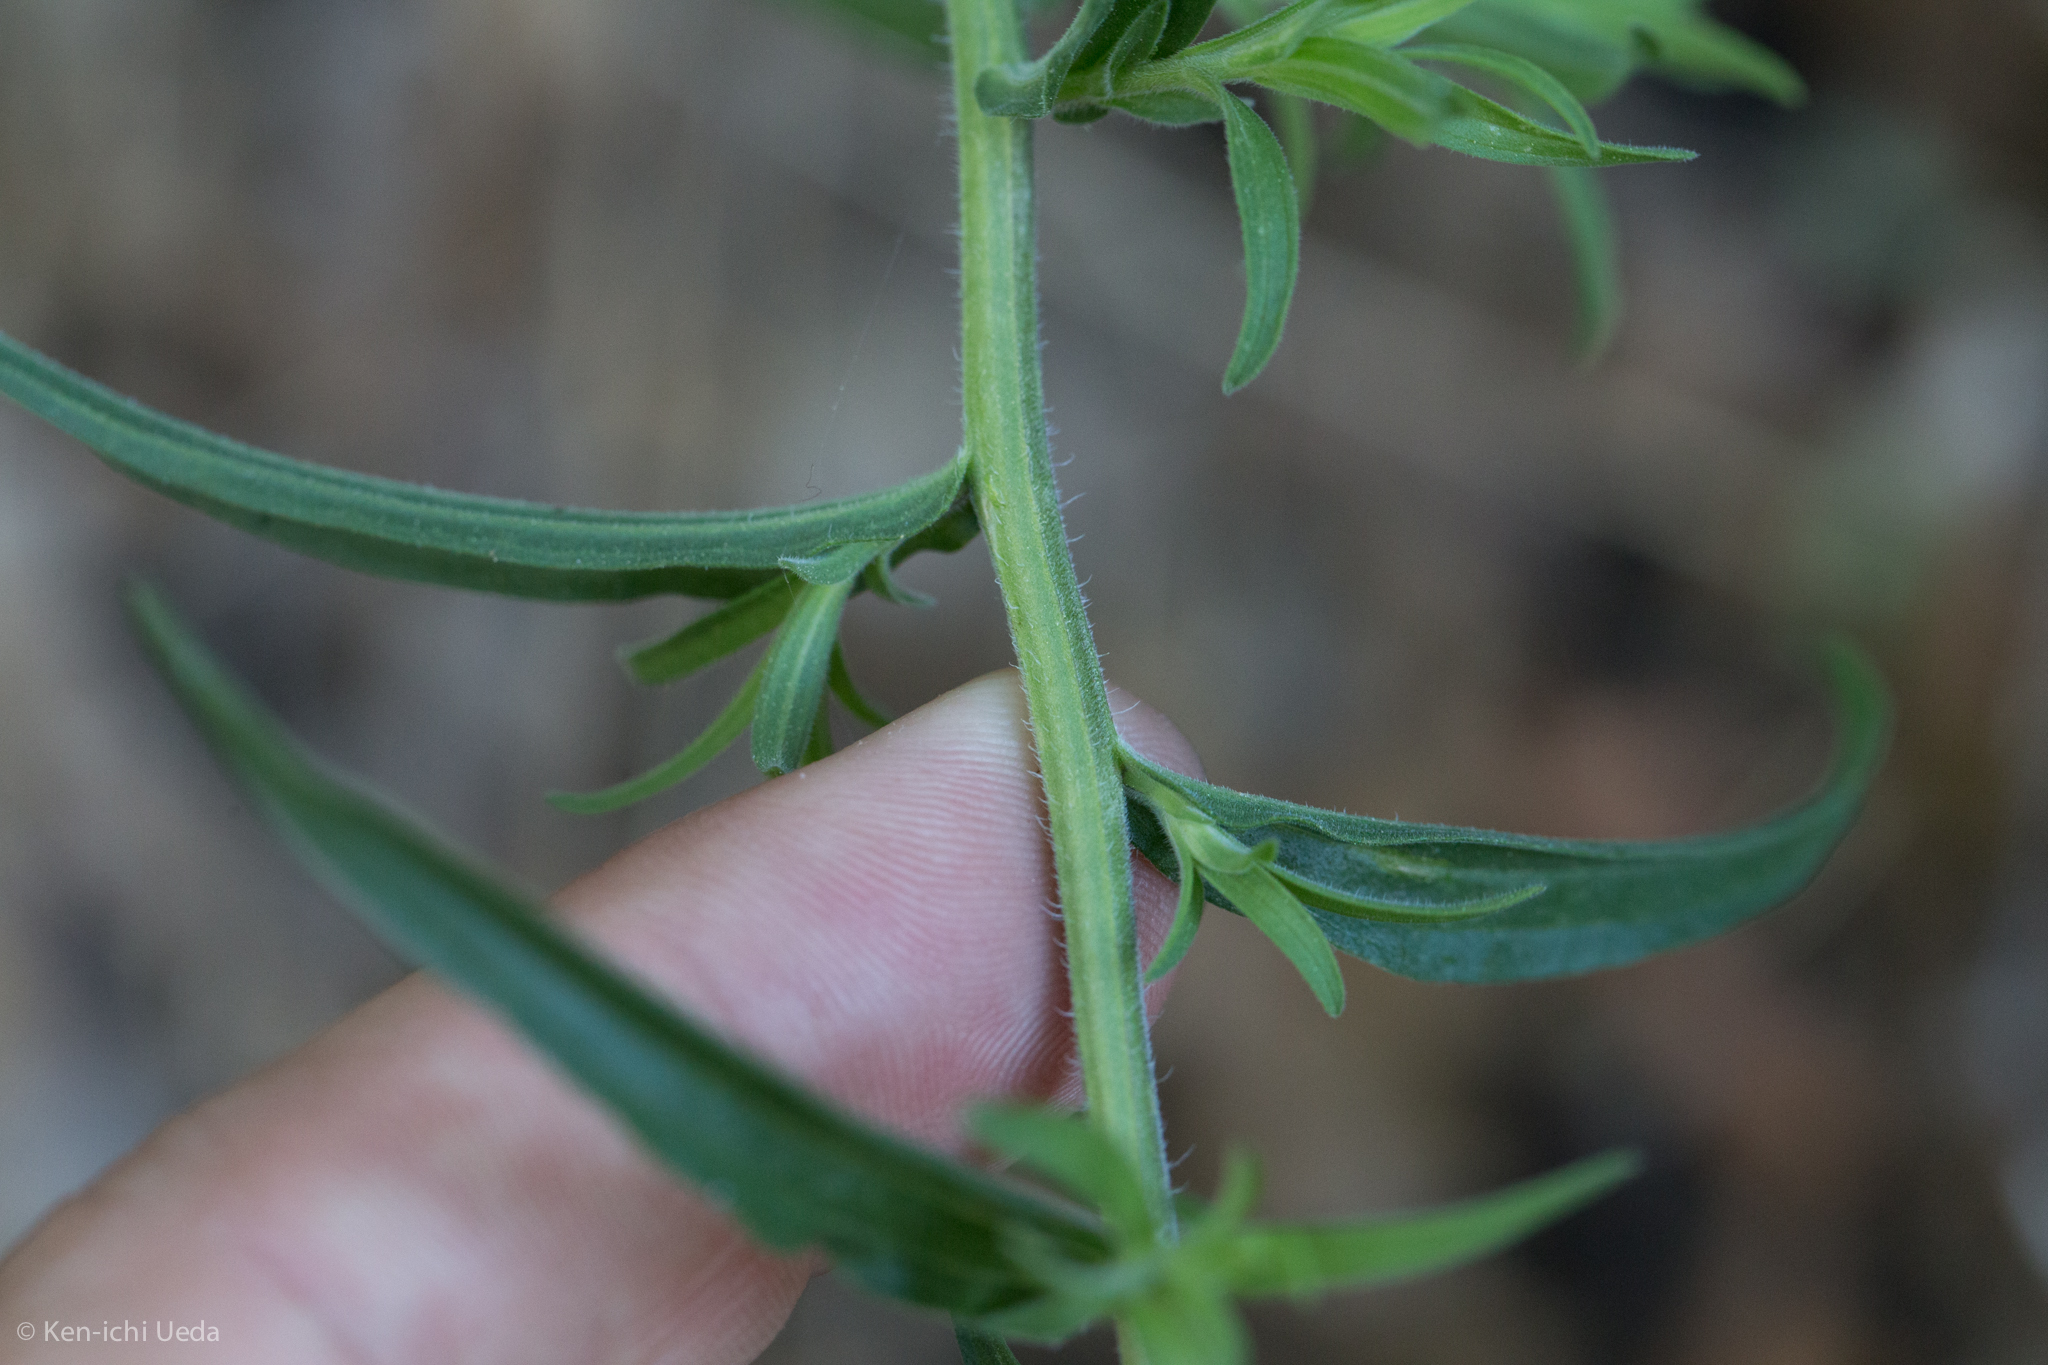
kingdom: Plantae
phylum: Tracheophyta
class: Magnoliopsida
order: Lamiales
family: Orobanchaceae
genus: Castilleja
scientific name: Castilleja nelsonii
